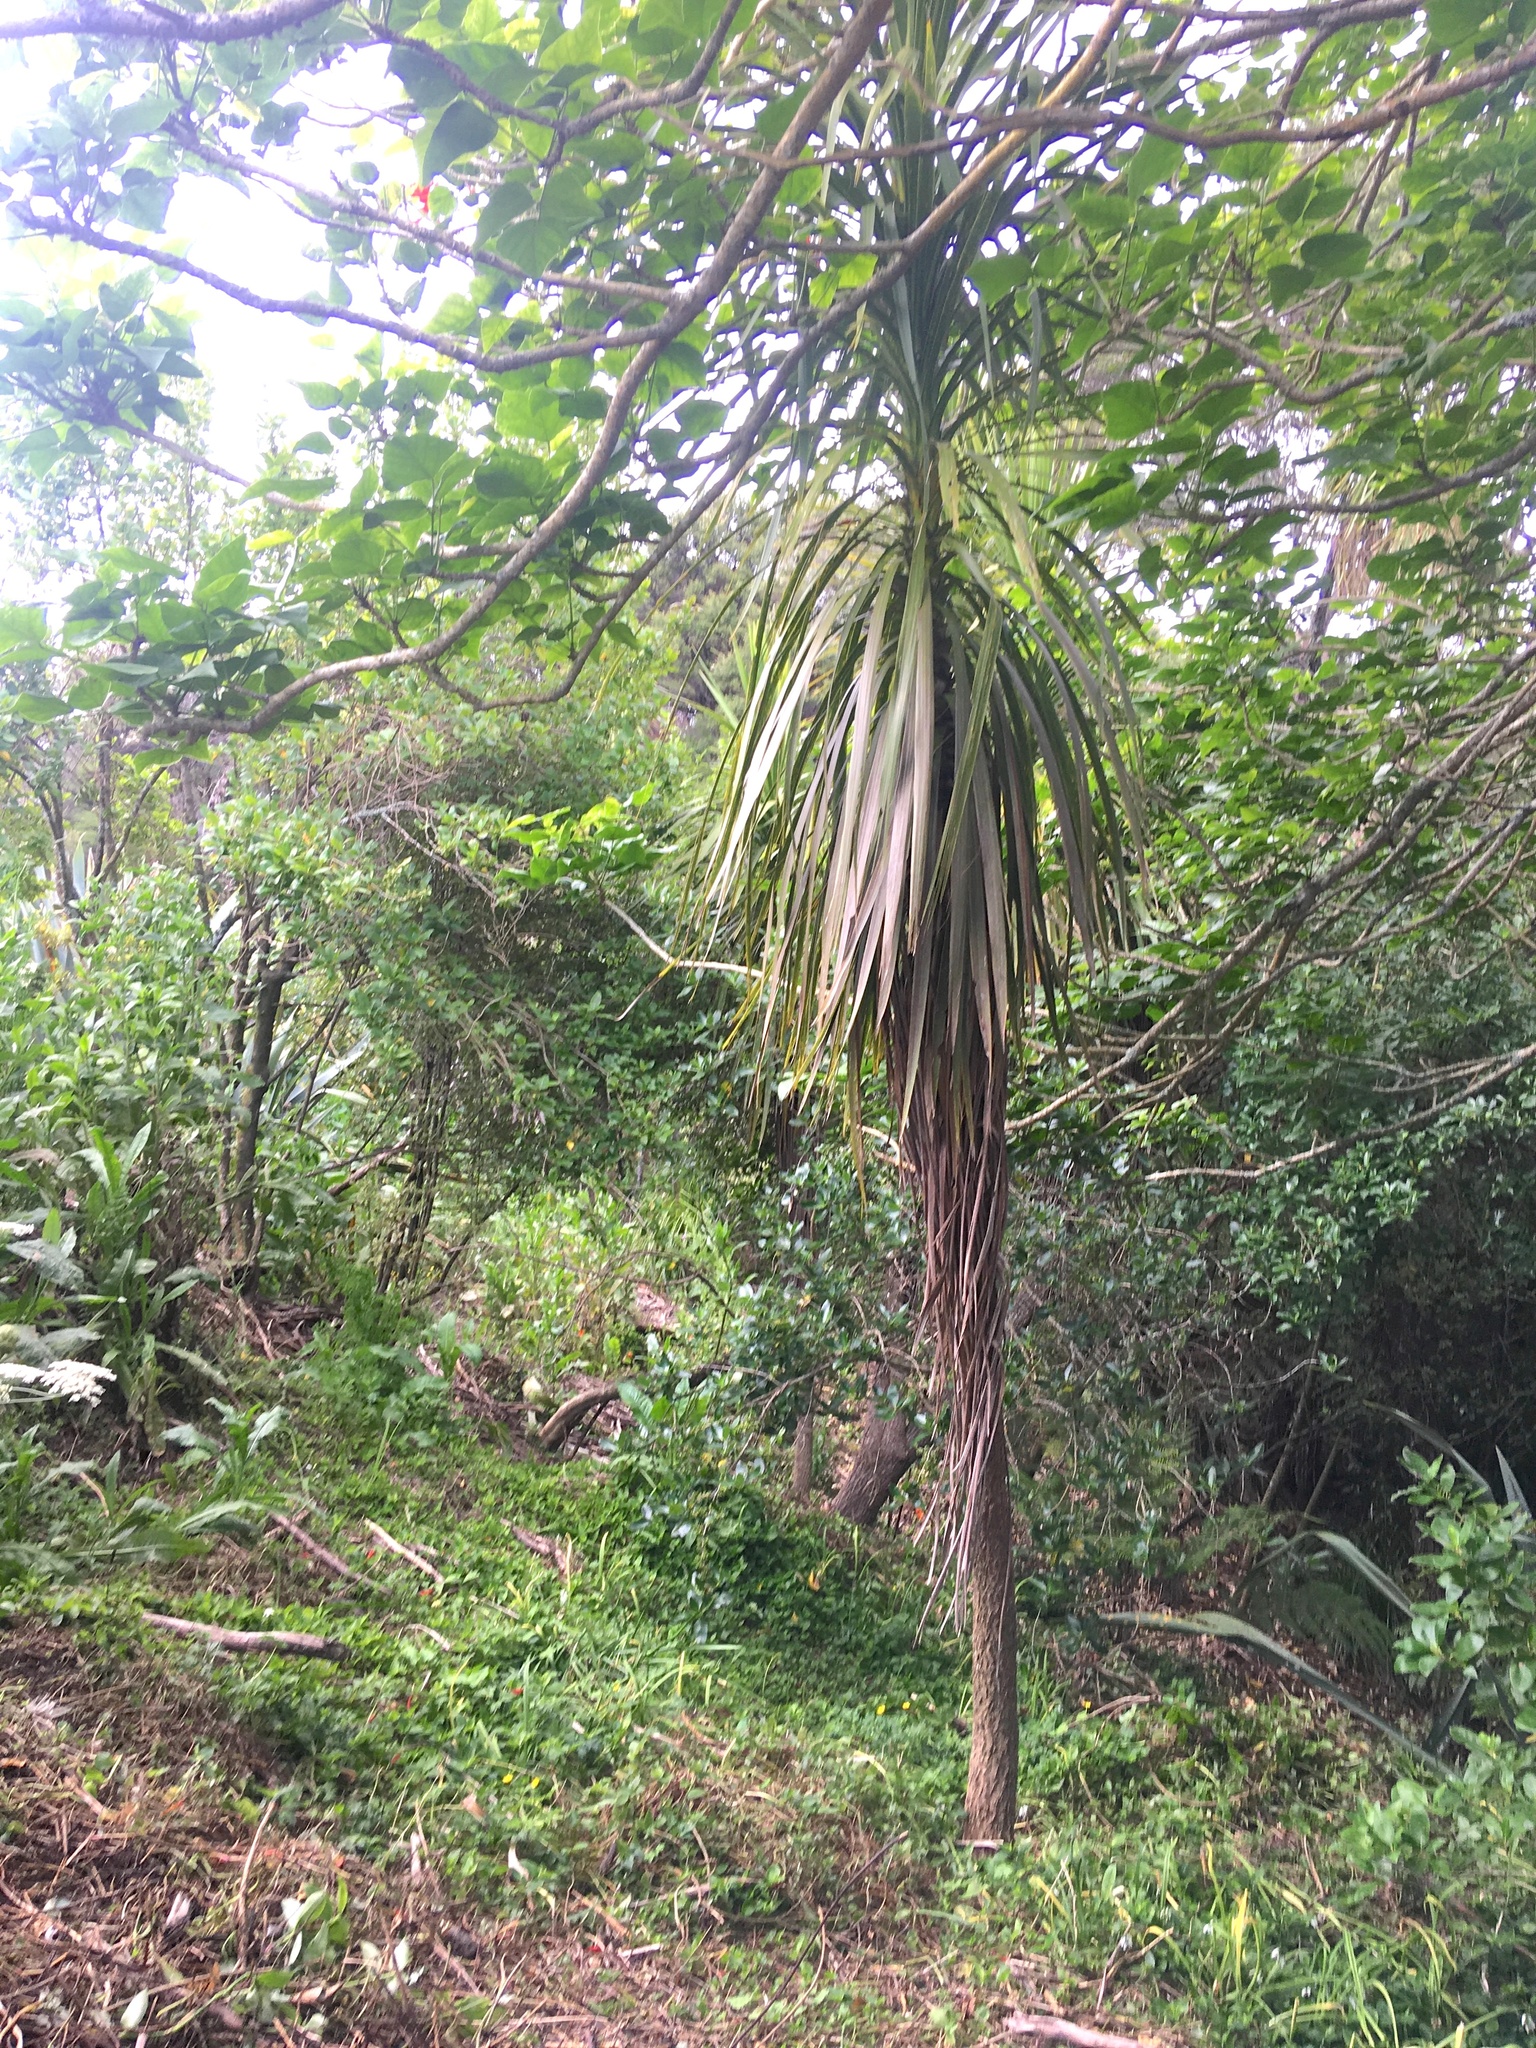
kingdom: Plantae
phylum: Tracheophyta
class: Liliopsida
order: Asparagales
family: Asparagaceae
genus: Cordyline
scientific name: Cordyline australis
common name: Cabbage-palm
